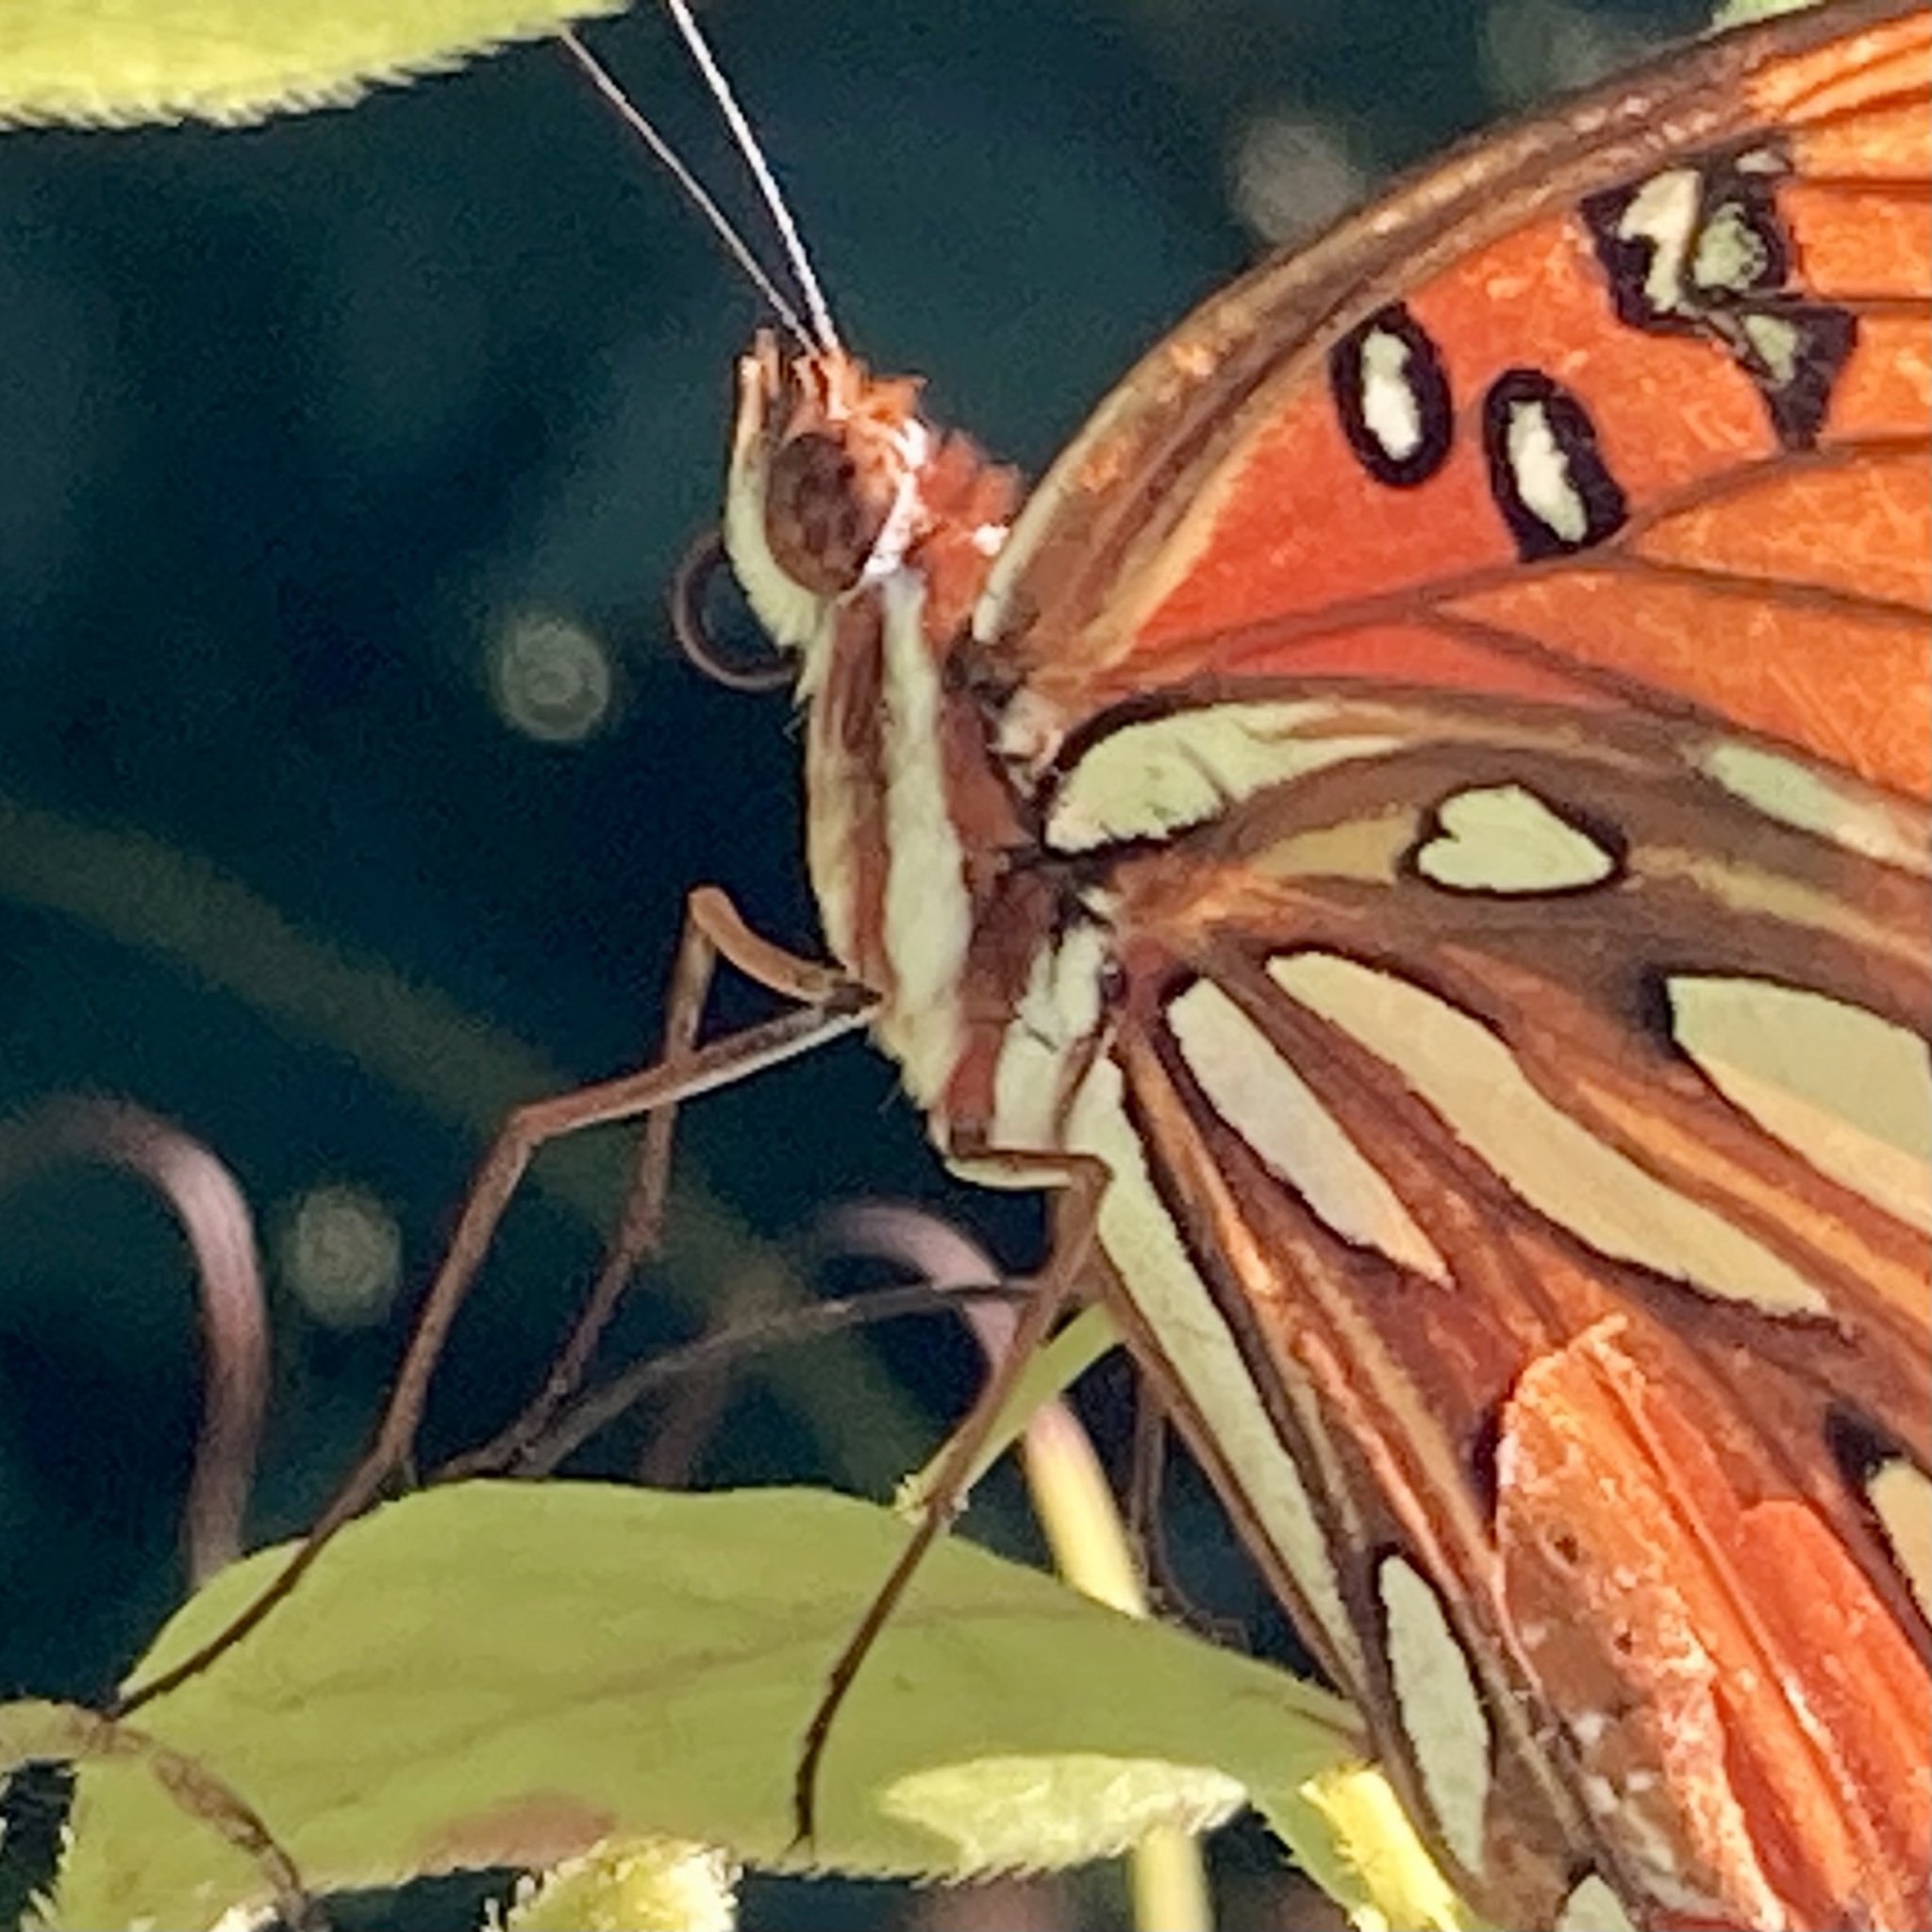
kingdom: Animalia
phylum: Arthropoda
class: Insecta
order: Lepidoptera
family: Nymphalidae
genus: Dione
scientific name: Dione vanillae
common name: Gulf fritillary
